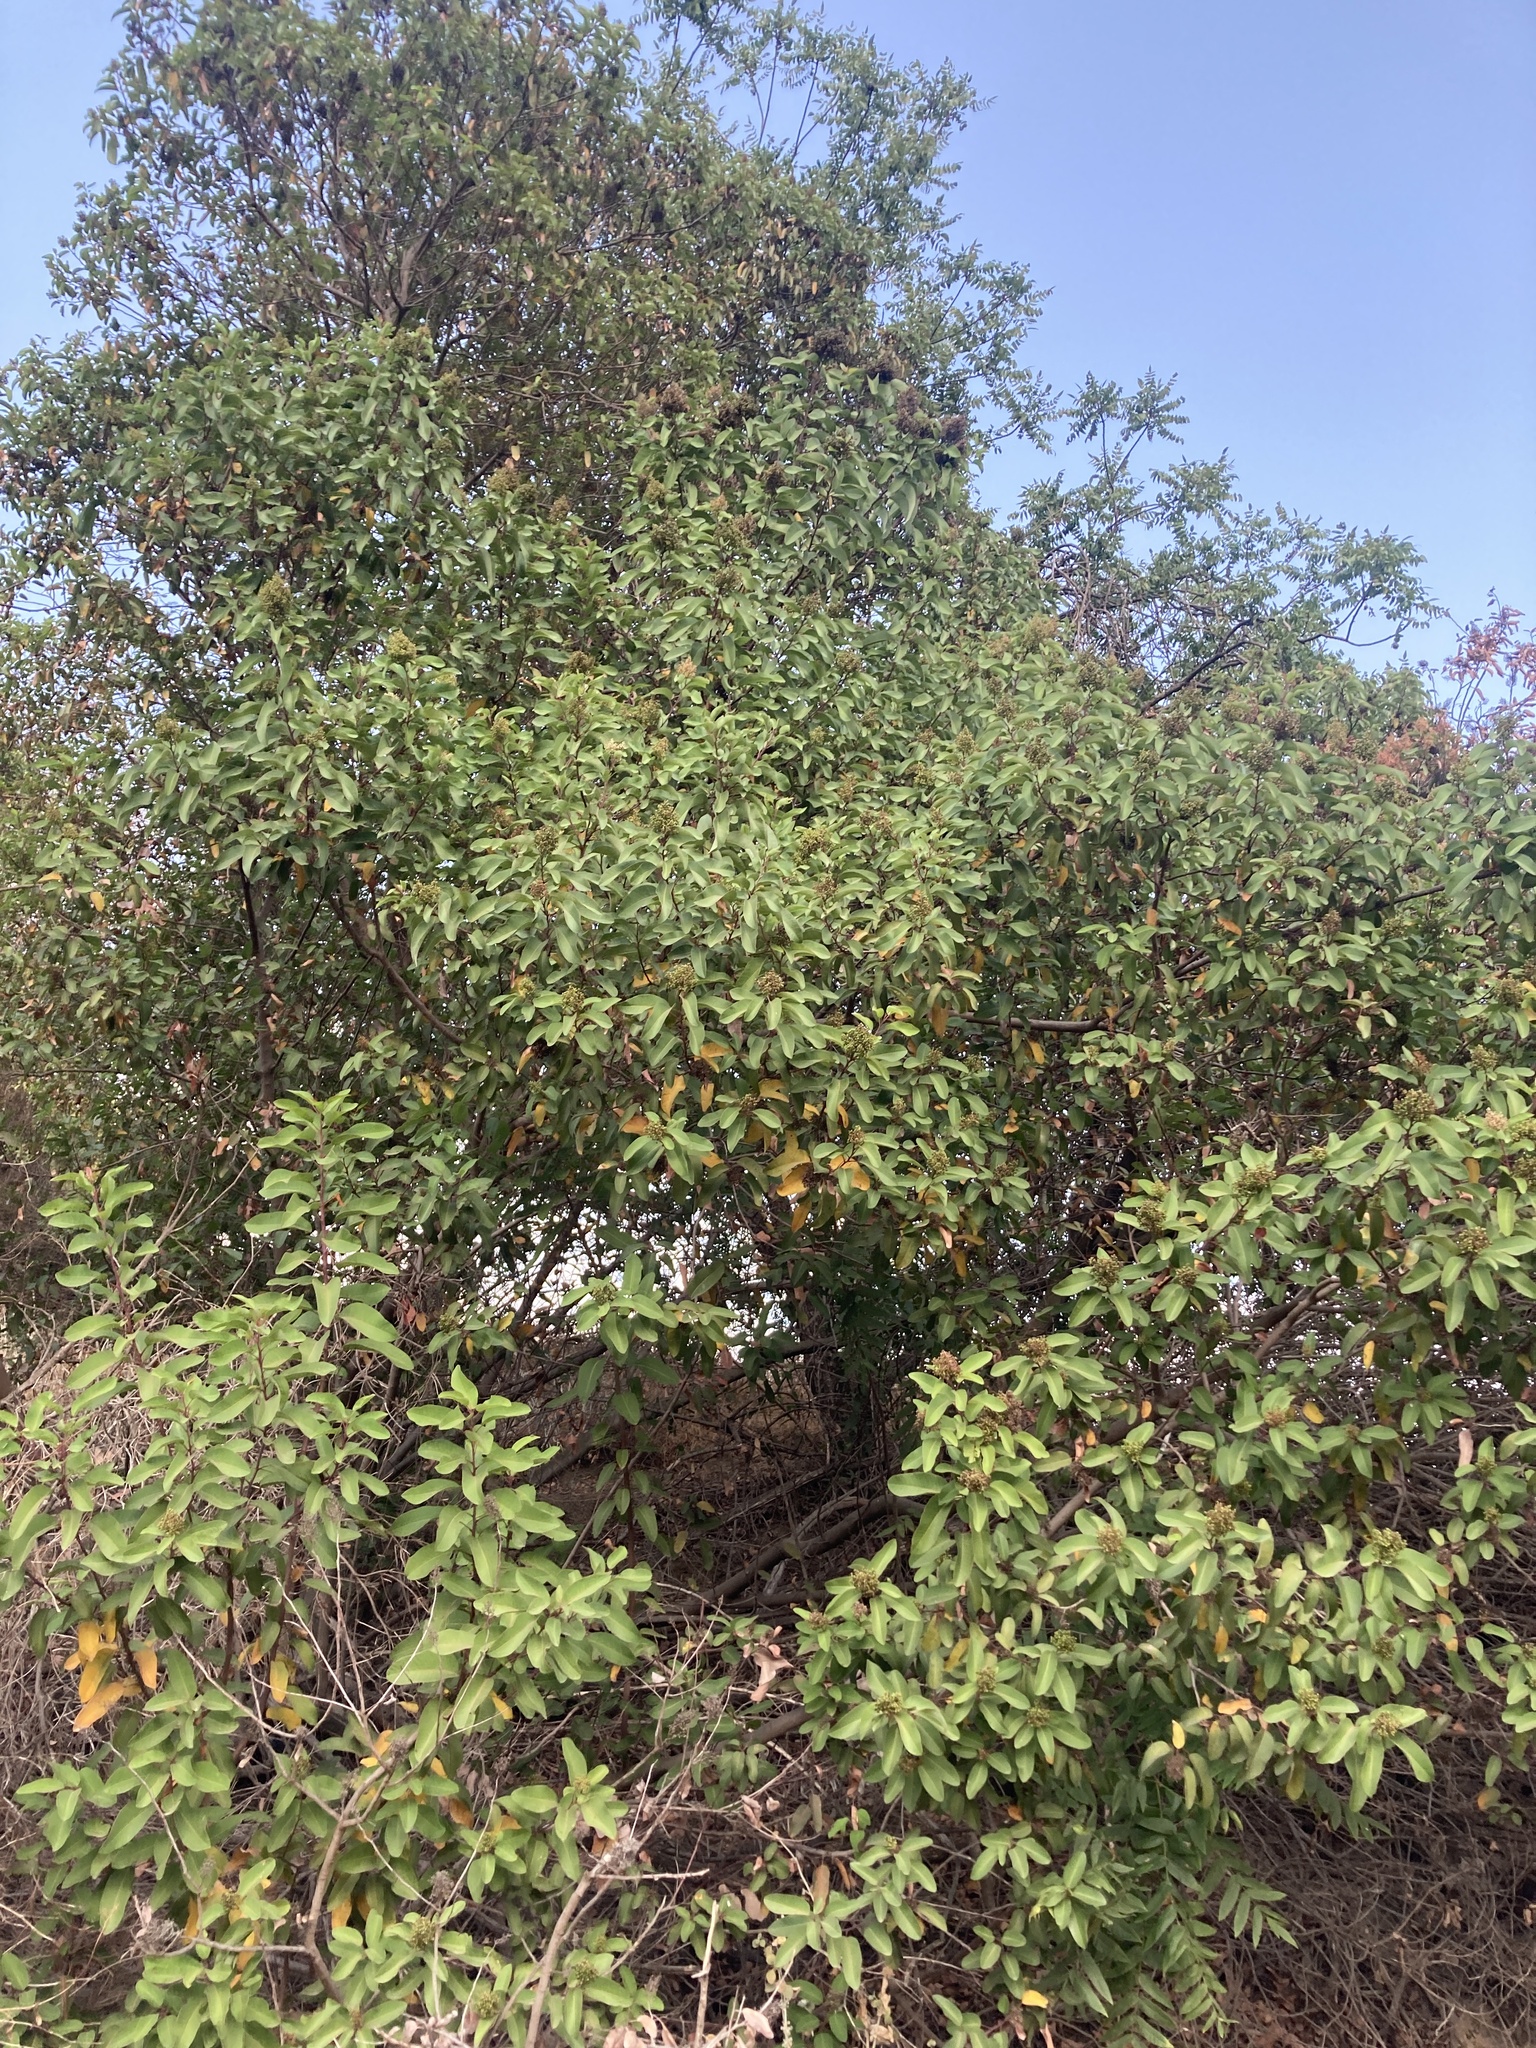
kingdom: Plantae
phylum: Tracheophyta
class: Magnoliopsida
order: Sapindales
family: Anacardiaceae
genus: Malosma
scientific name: Malosma laurina
